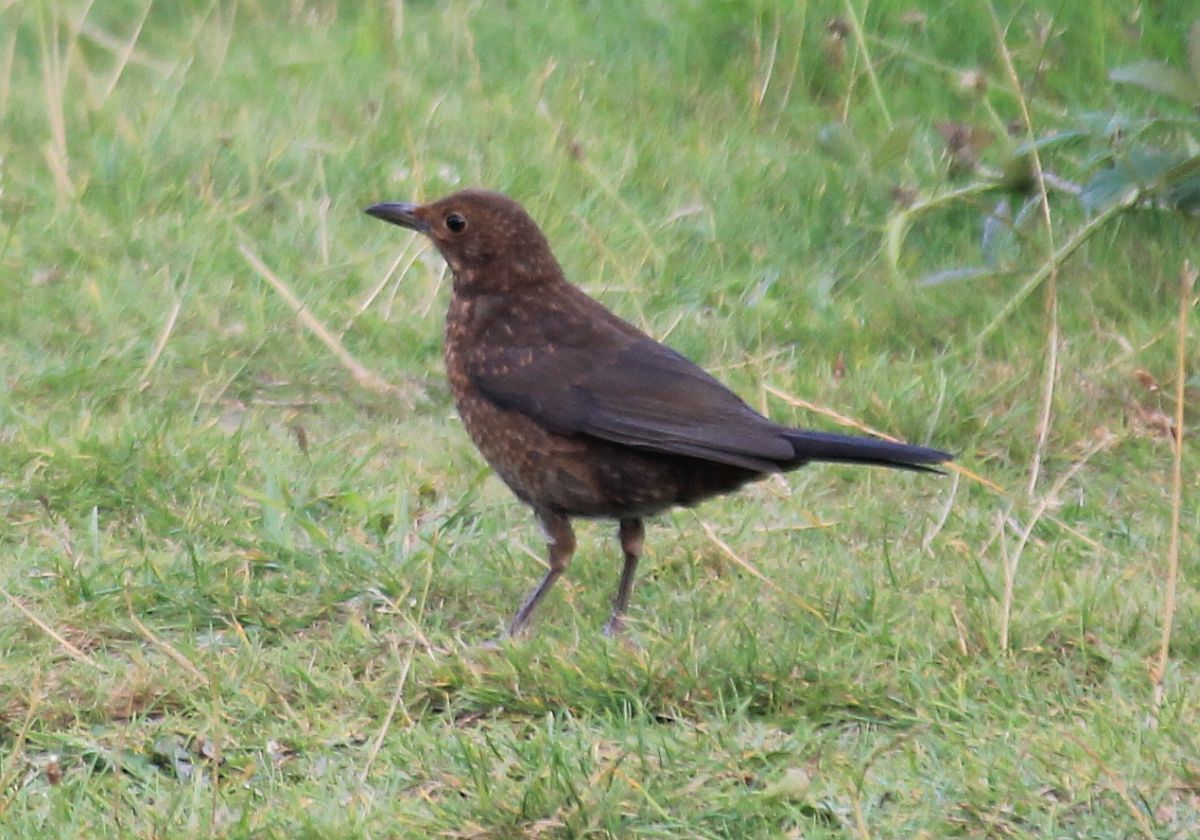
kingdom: Animalia
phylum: Chordata
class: Aves
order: Passeriformes
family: Turdidae
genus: Turdus
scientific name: Turdus merula
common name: Common blackbird
